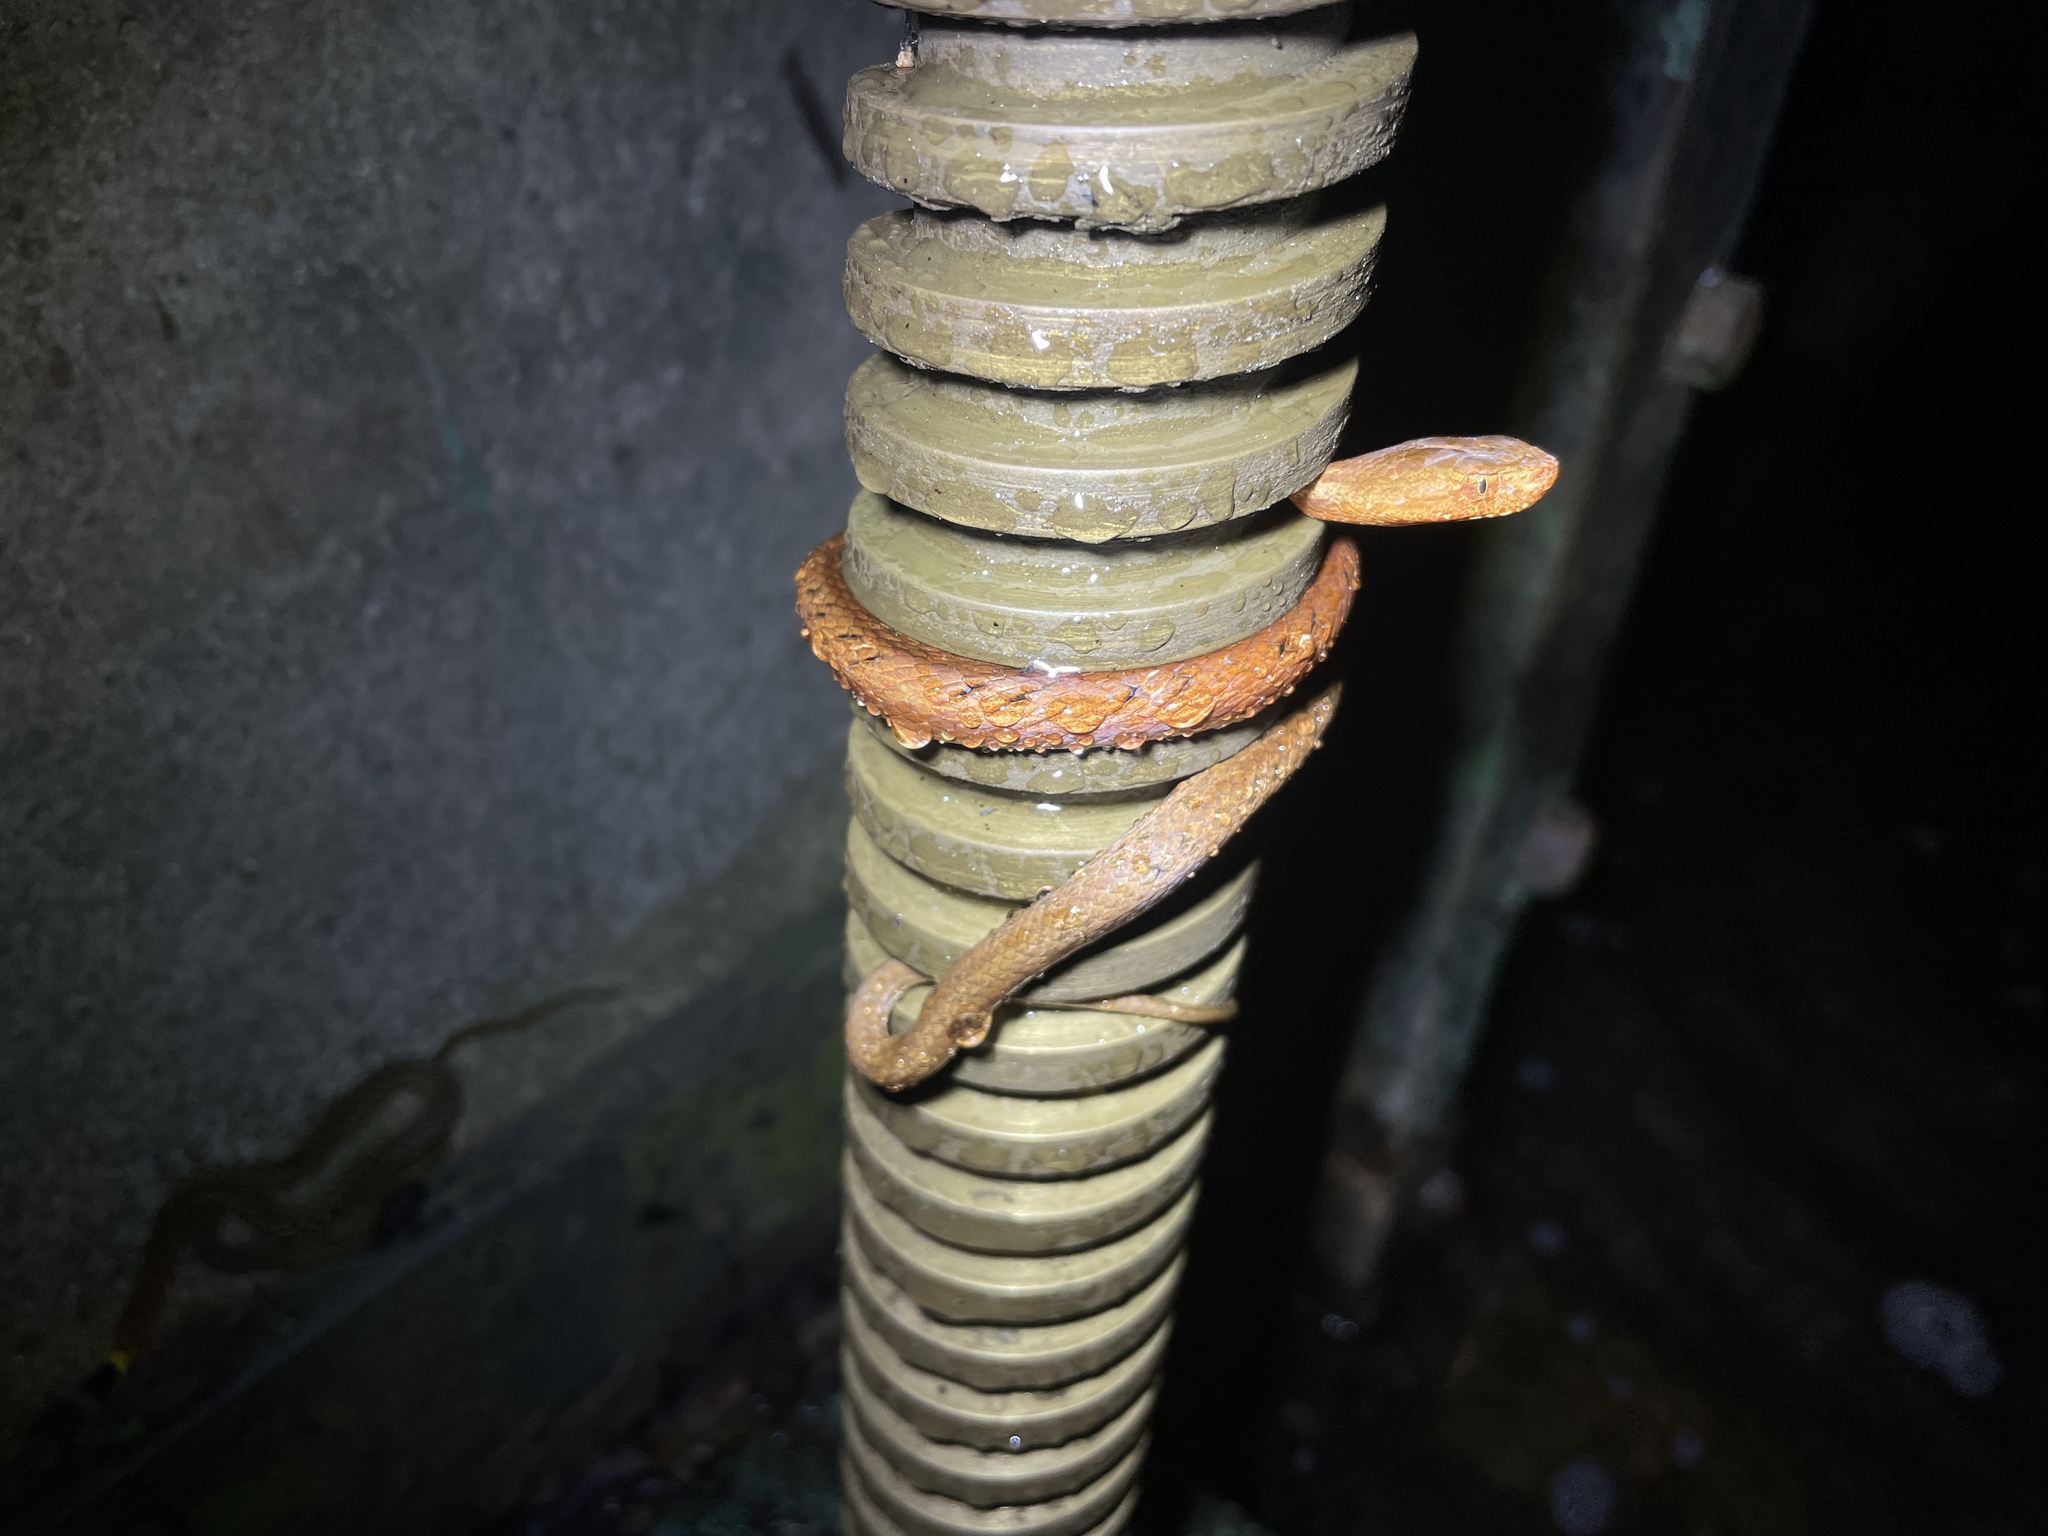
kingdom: Animalia
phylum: Chordata
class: Squamata
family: Pseudaspididae
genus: Psammodynastes
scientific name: Psammodynastes pulverulentus
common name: Common mock viper
